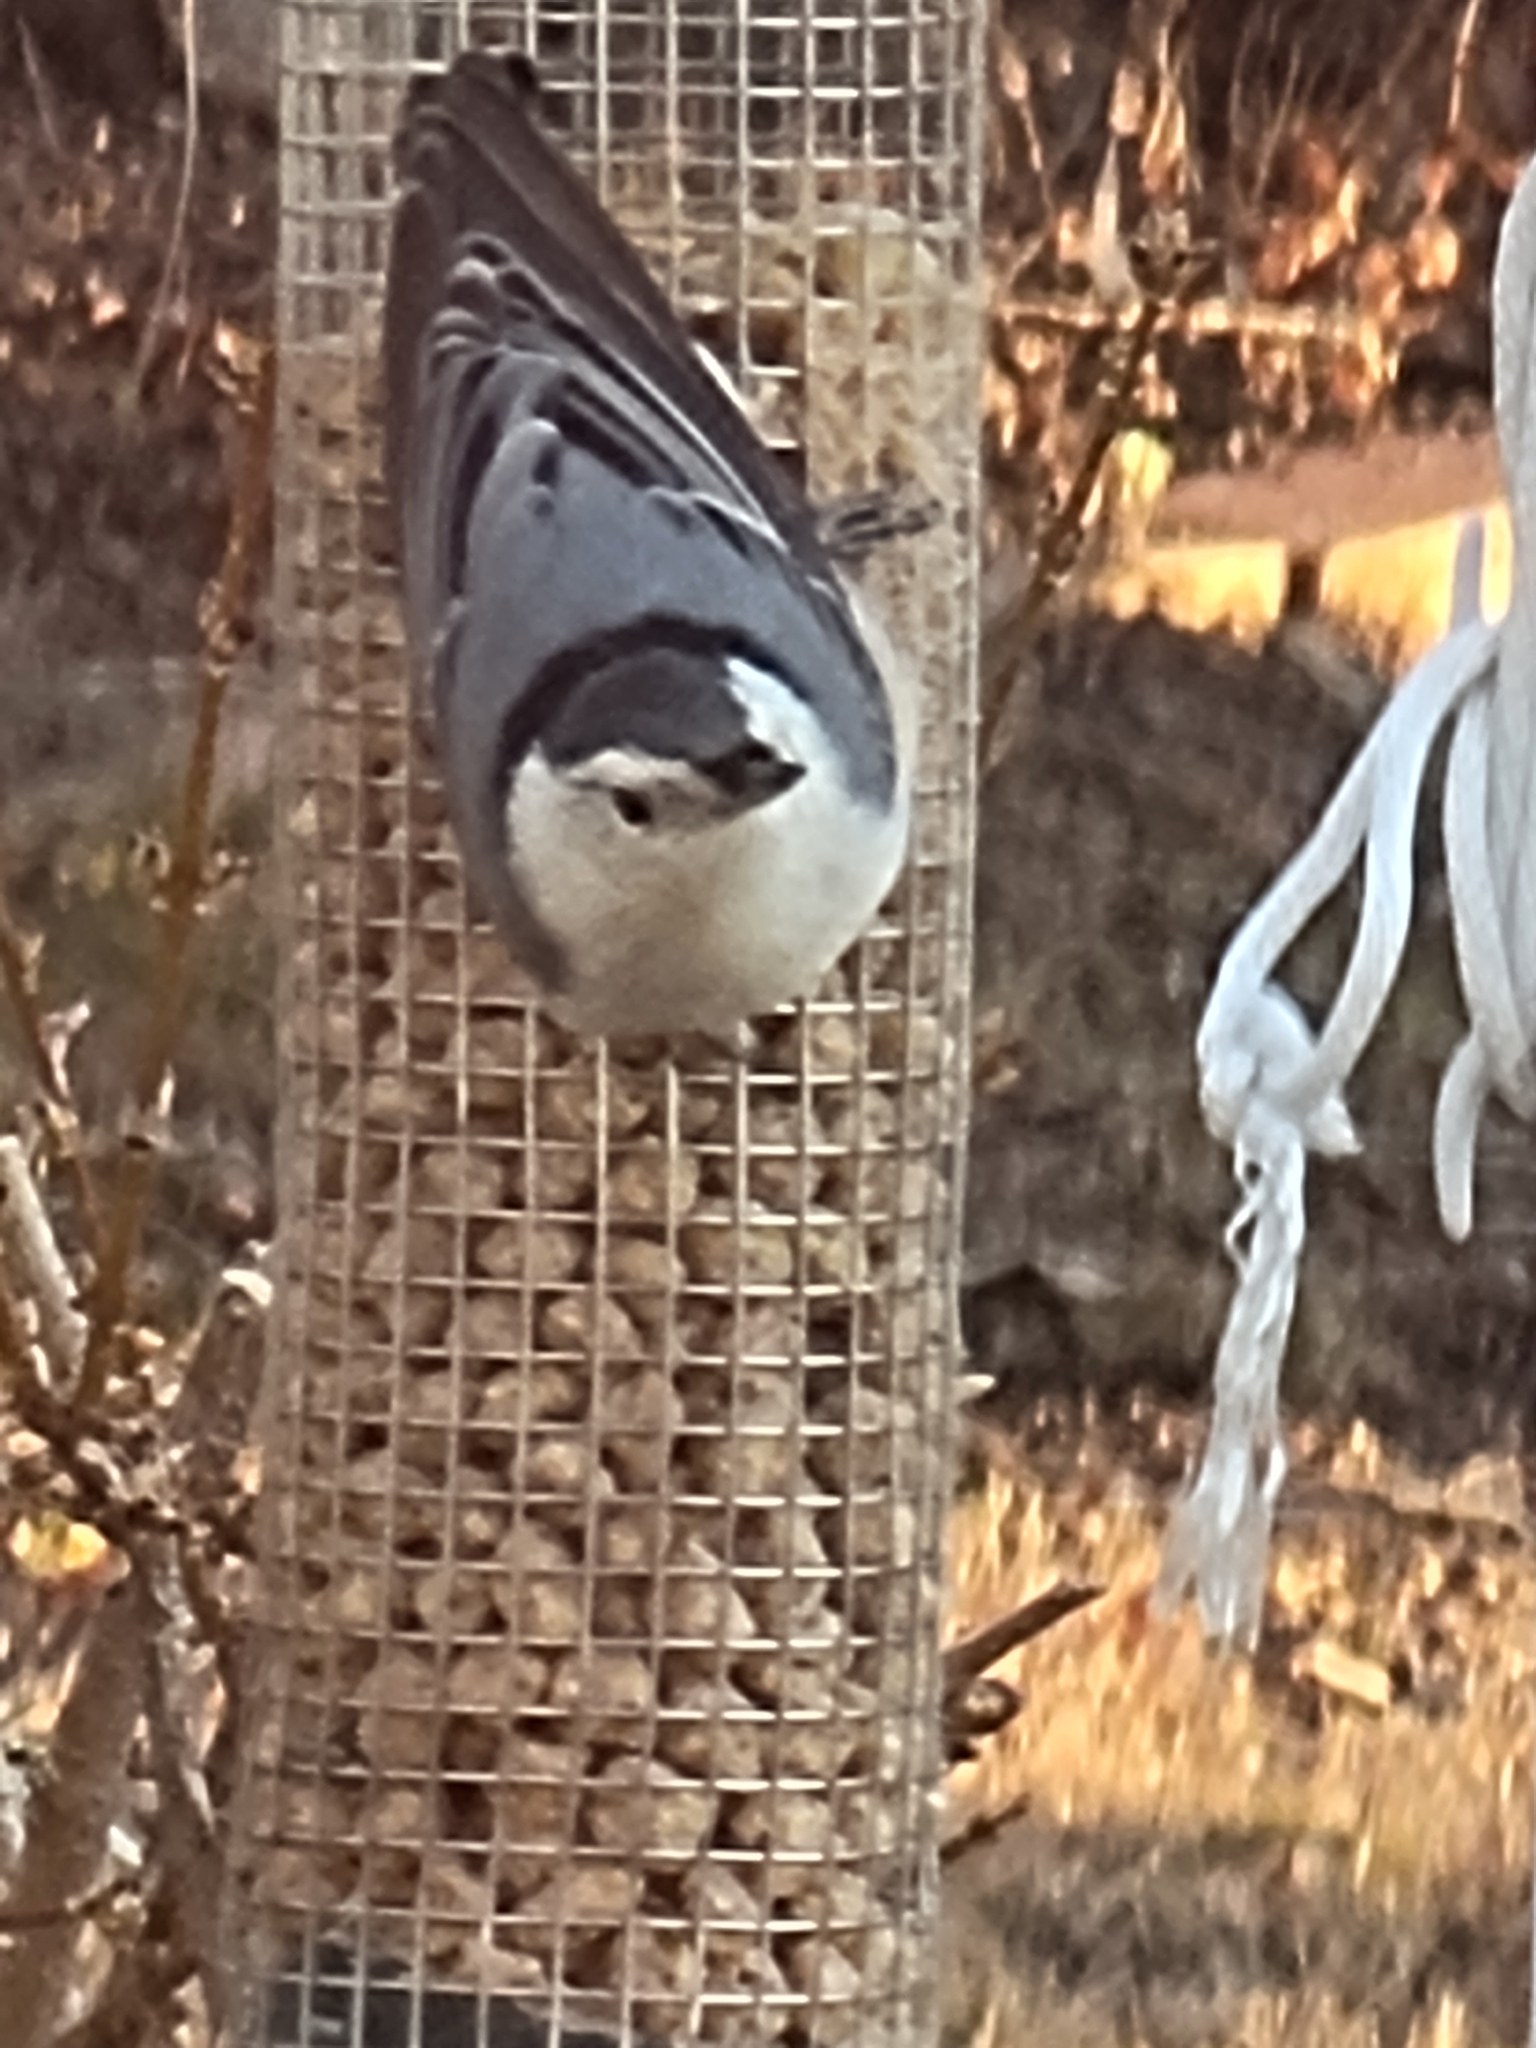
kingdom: Animalia
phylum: Chordata
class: Aves
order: Passeriformes
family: Sittidae
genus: Sitta
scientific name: Sitta carolinensis
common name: White-breasted nuthatch
